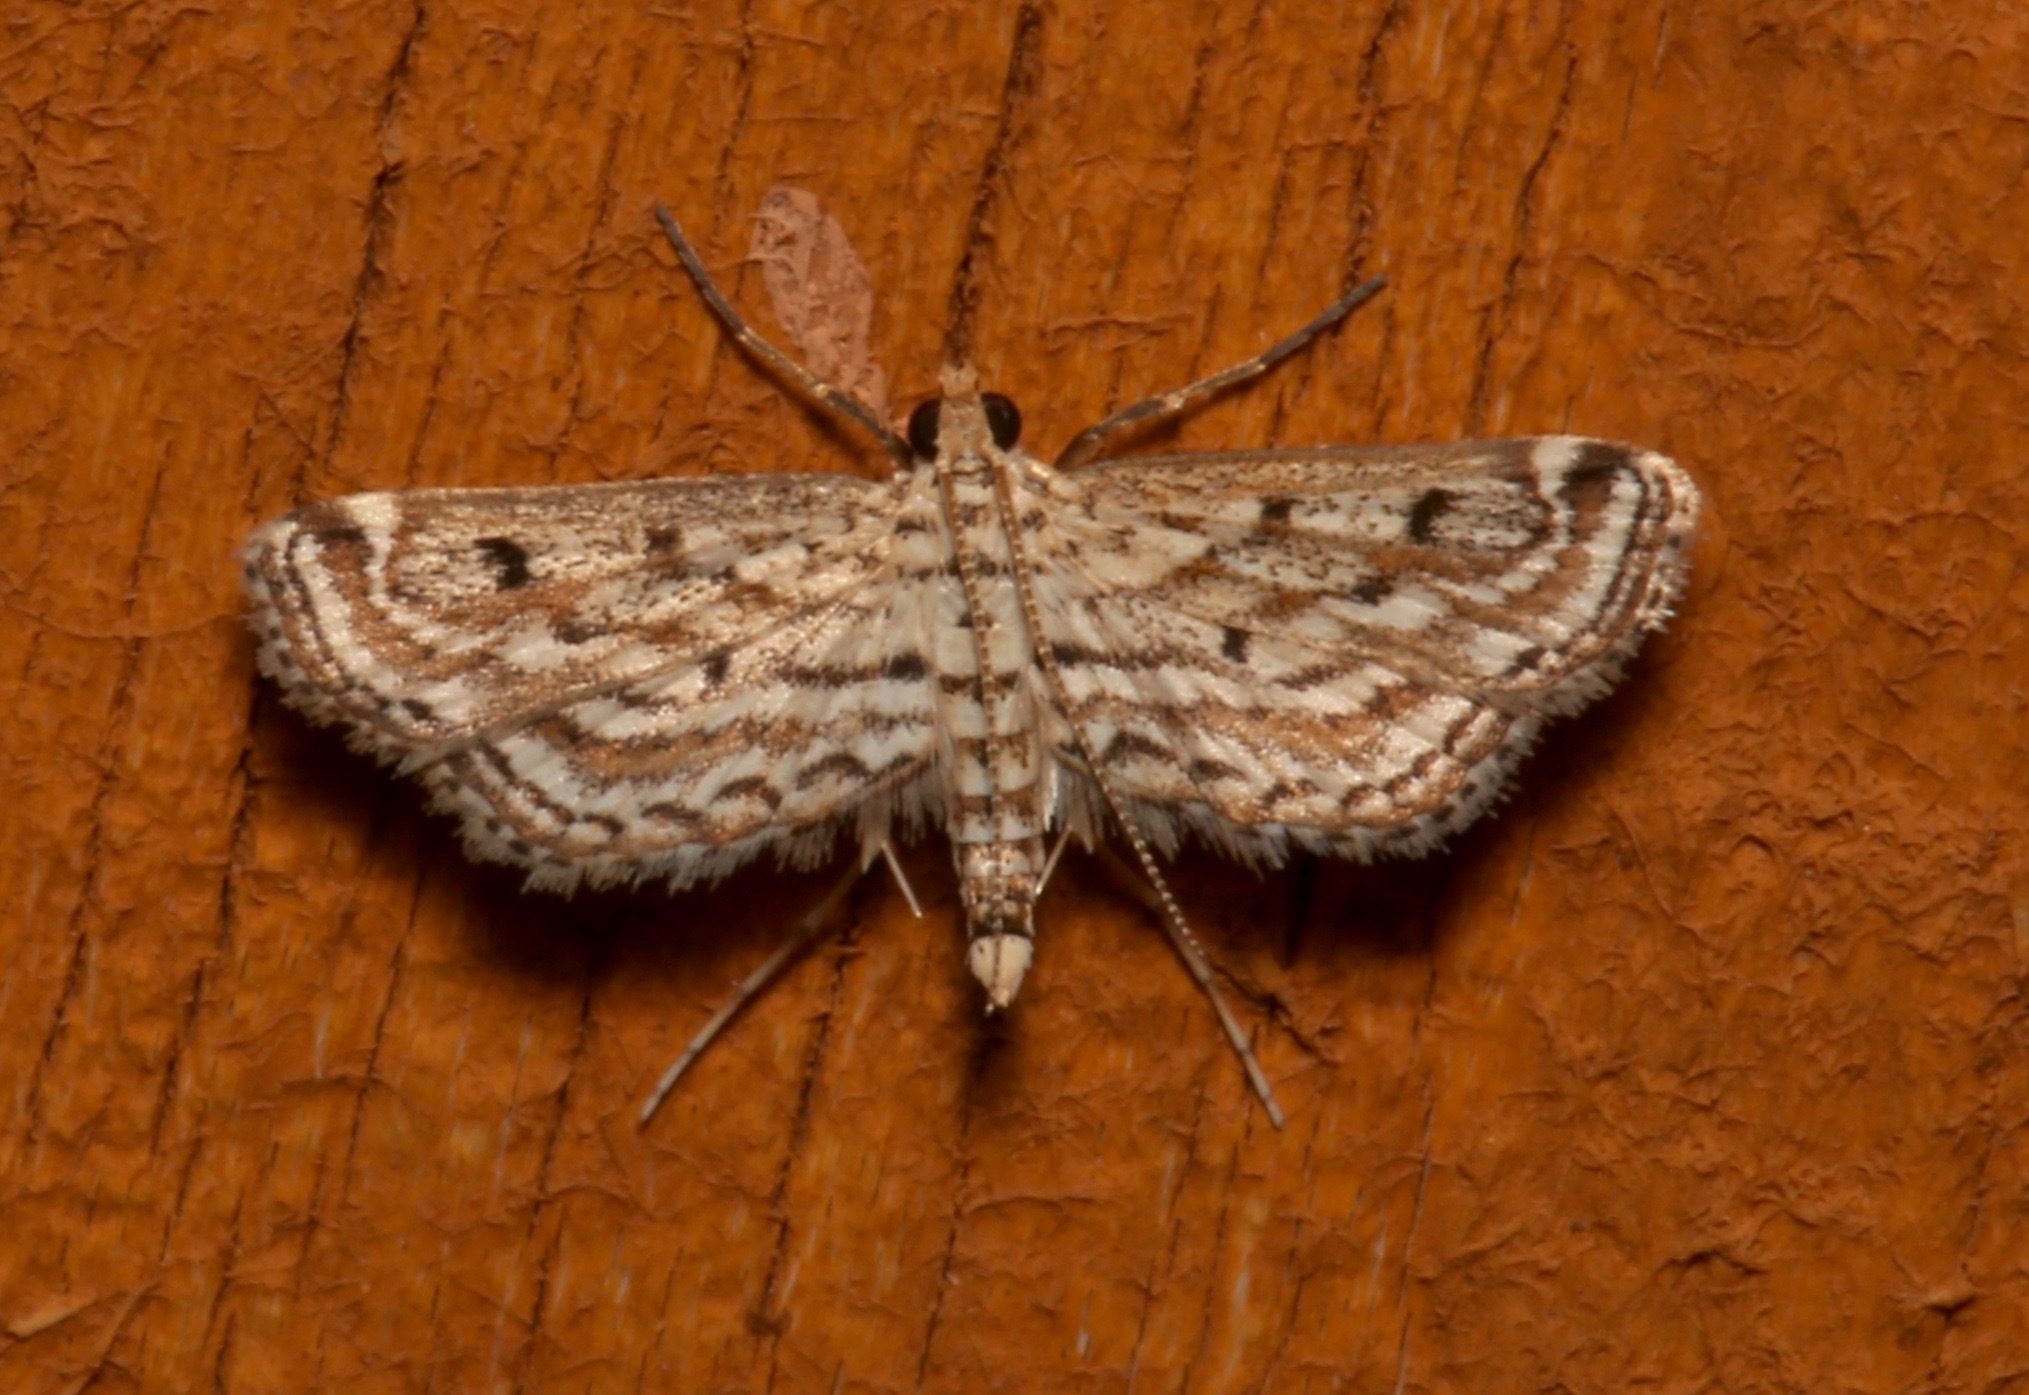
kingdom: Animalia
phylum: Arthropoda
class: Insecta
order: Lepidoptera
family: Crambidae
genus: Parapoynx
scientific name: Parapoynx allionealis
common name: Bladderwort casemaker
